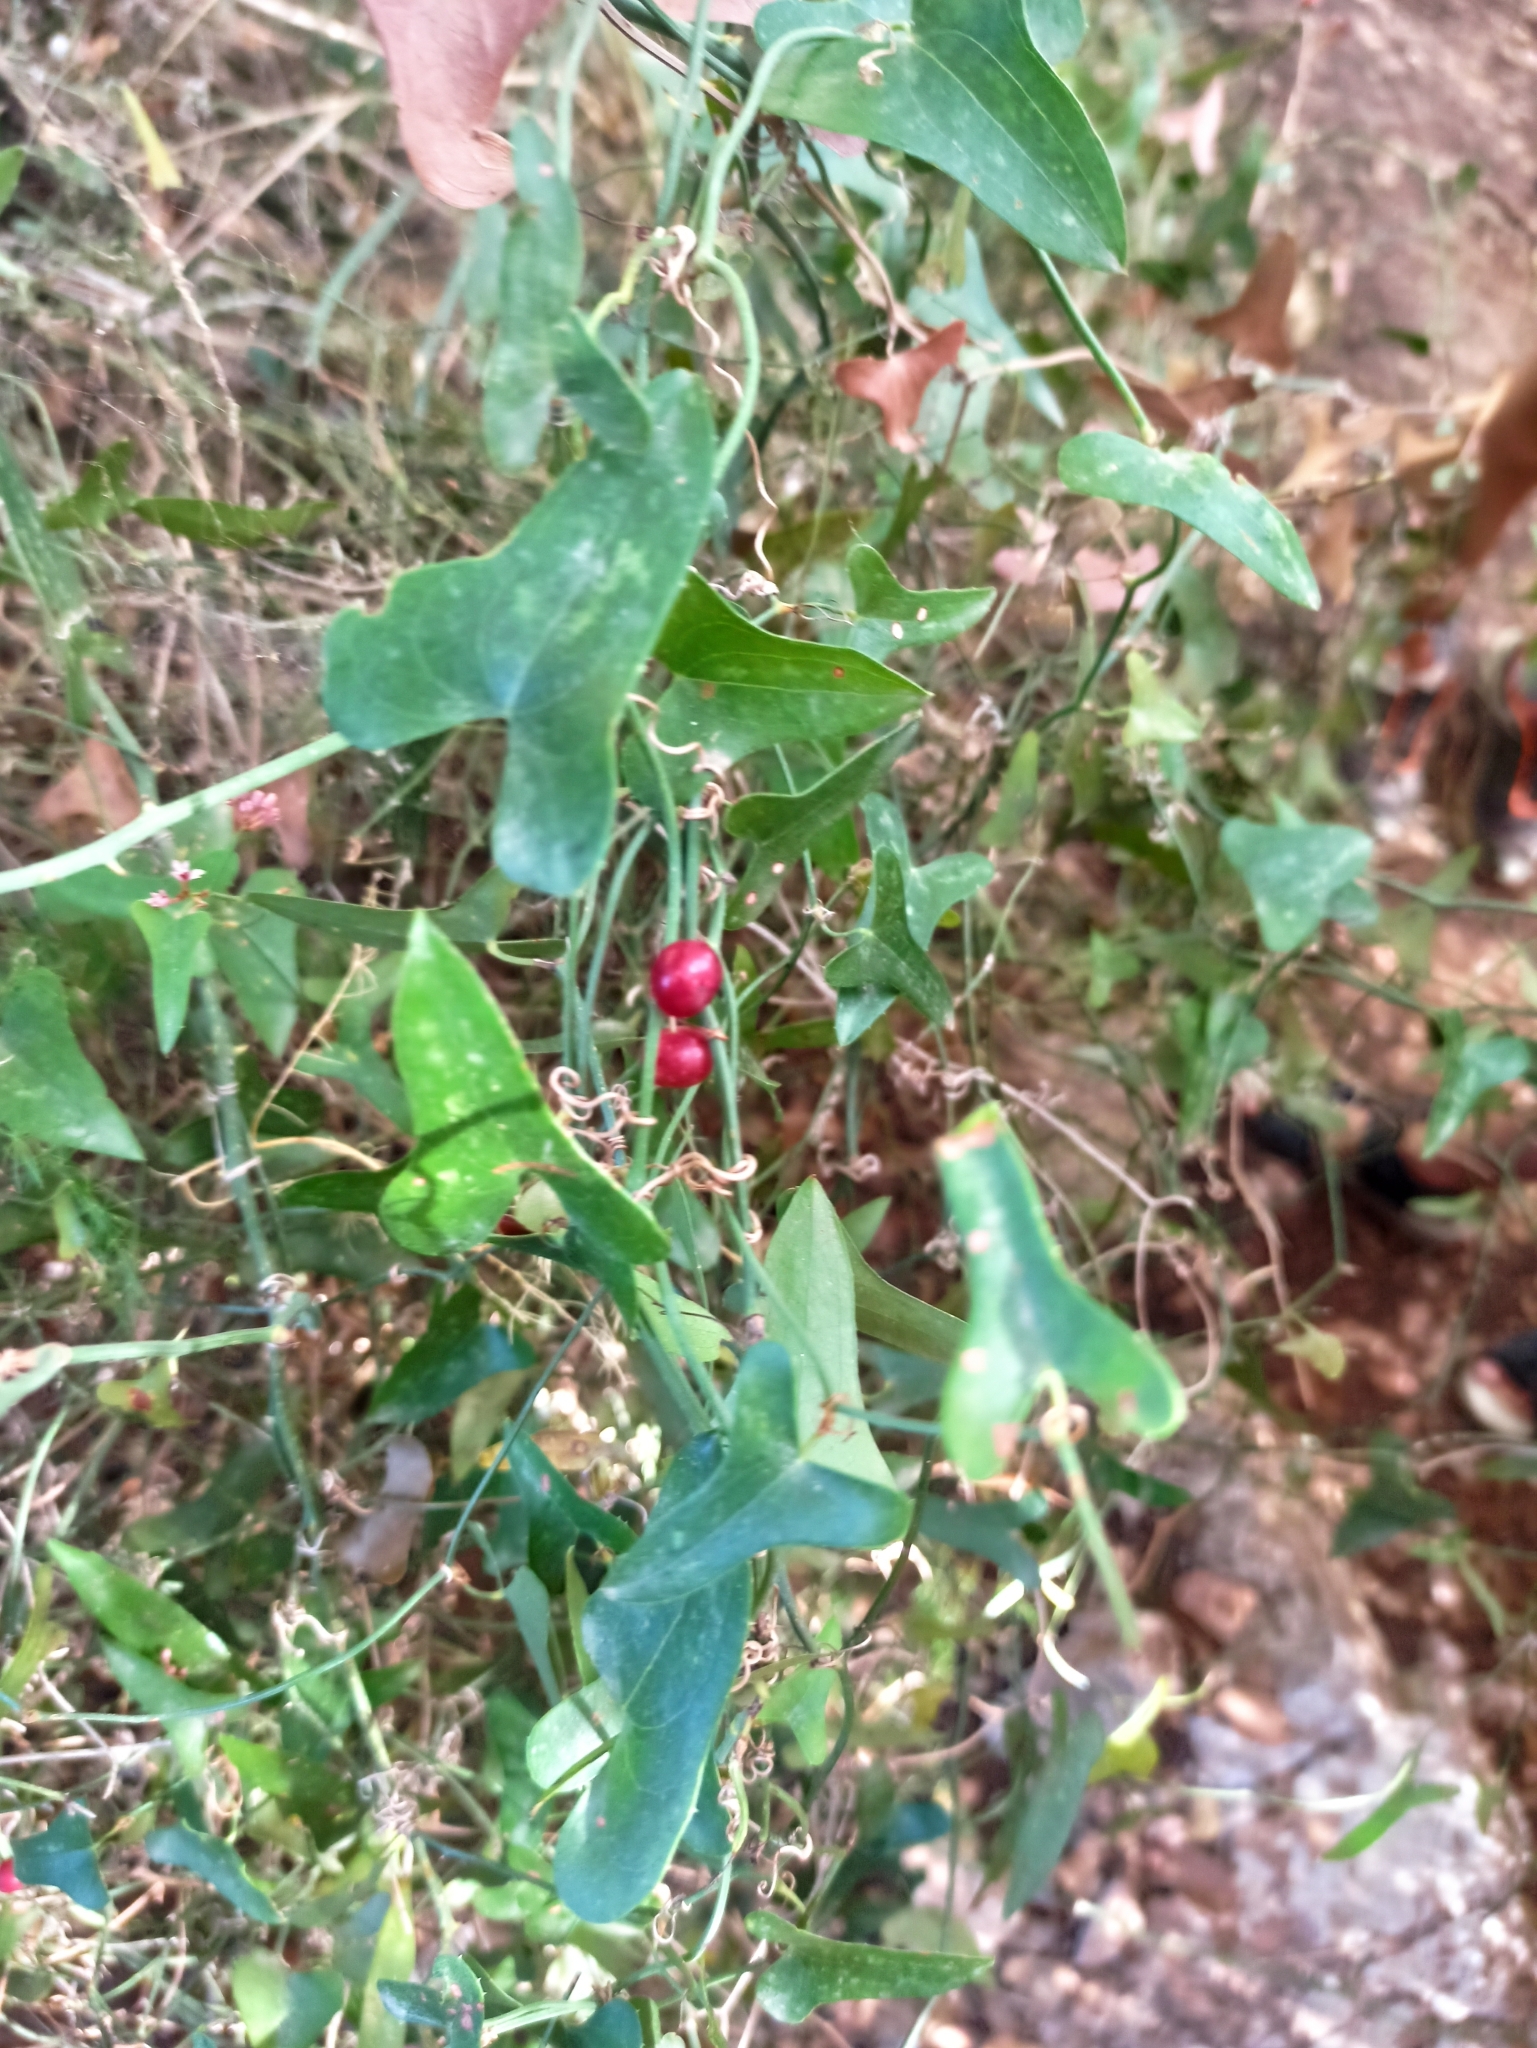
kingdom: Plantae
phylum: Tracheophyta
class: Liliopsida
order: Liliales
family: Smilacaceae
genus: Smilax
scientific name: Smilax aspera
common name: Common smilax
